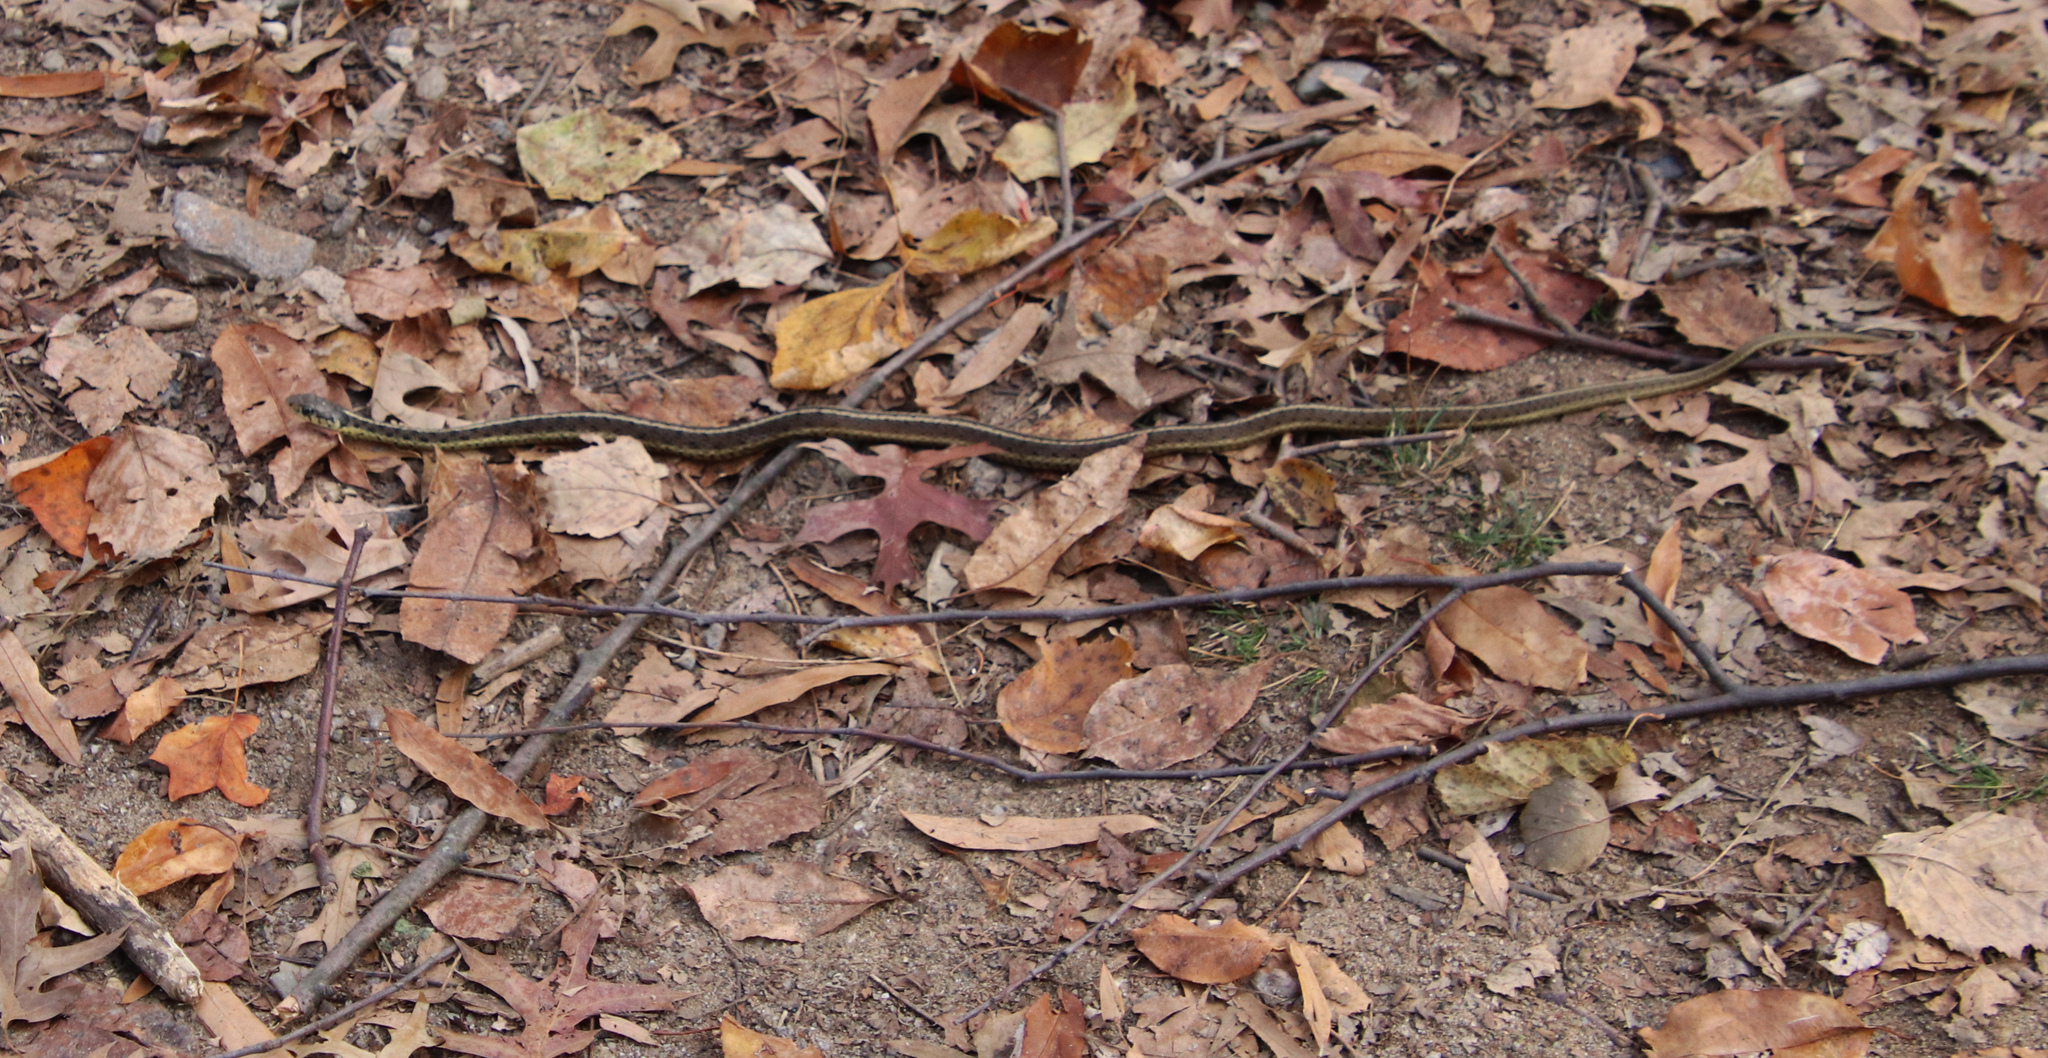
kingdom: Animalia
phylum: Chordata
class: Squamata
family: Colubridae
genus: Thamnophis
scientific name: Thamnophis sirtalis
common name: Common garter snake
